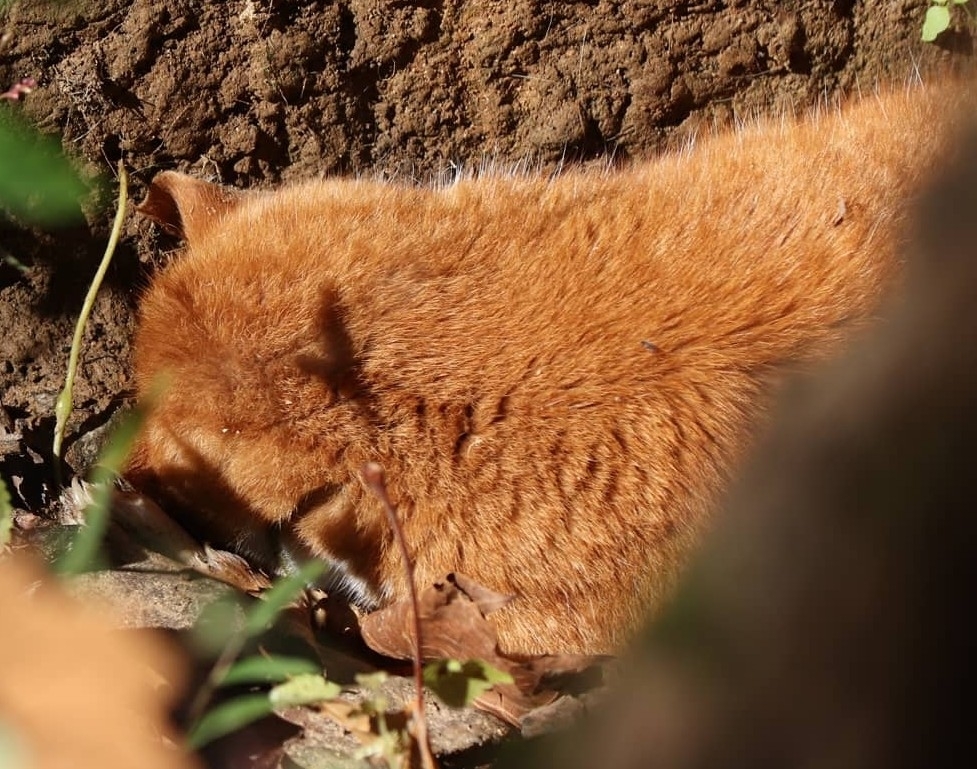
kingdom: Animalia
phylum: Chordata
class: Mammalia
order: Carnivora
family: Canidae
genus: Vulpes
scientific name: Vulpes vulpes
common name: Red fox
